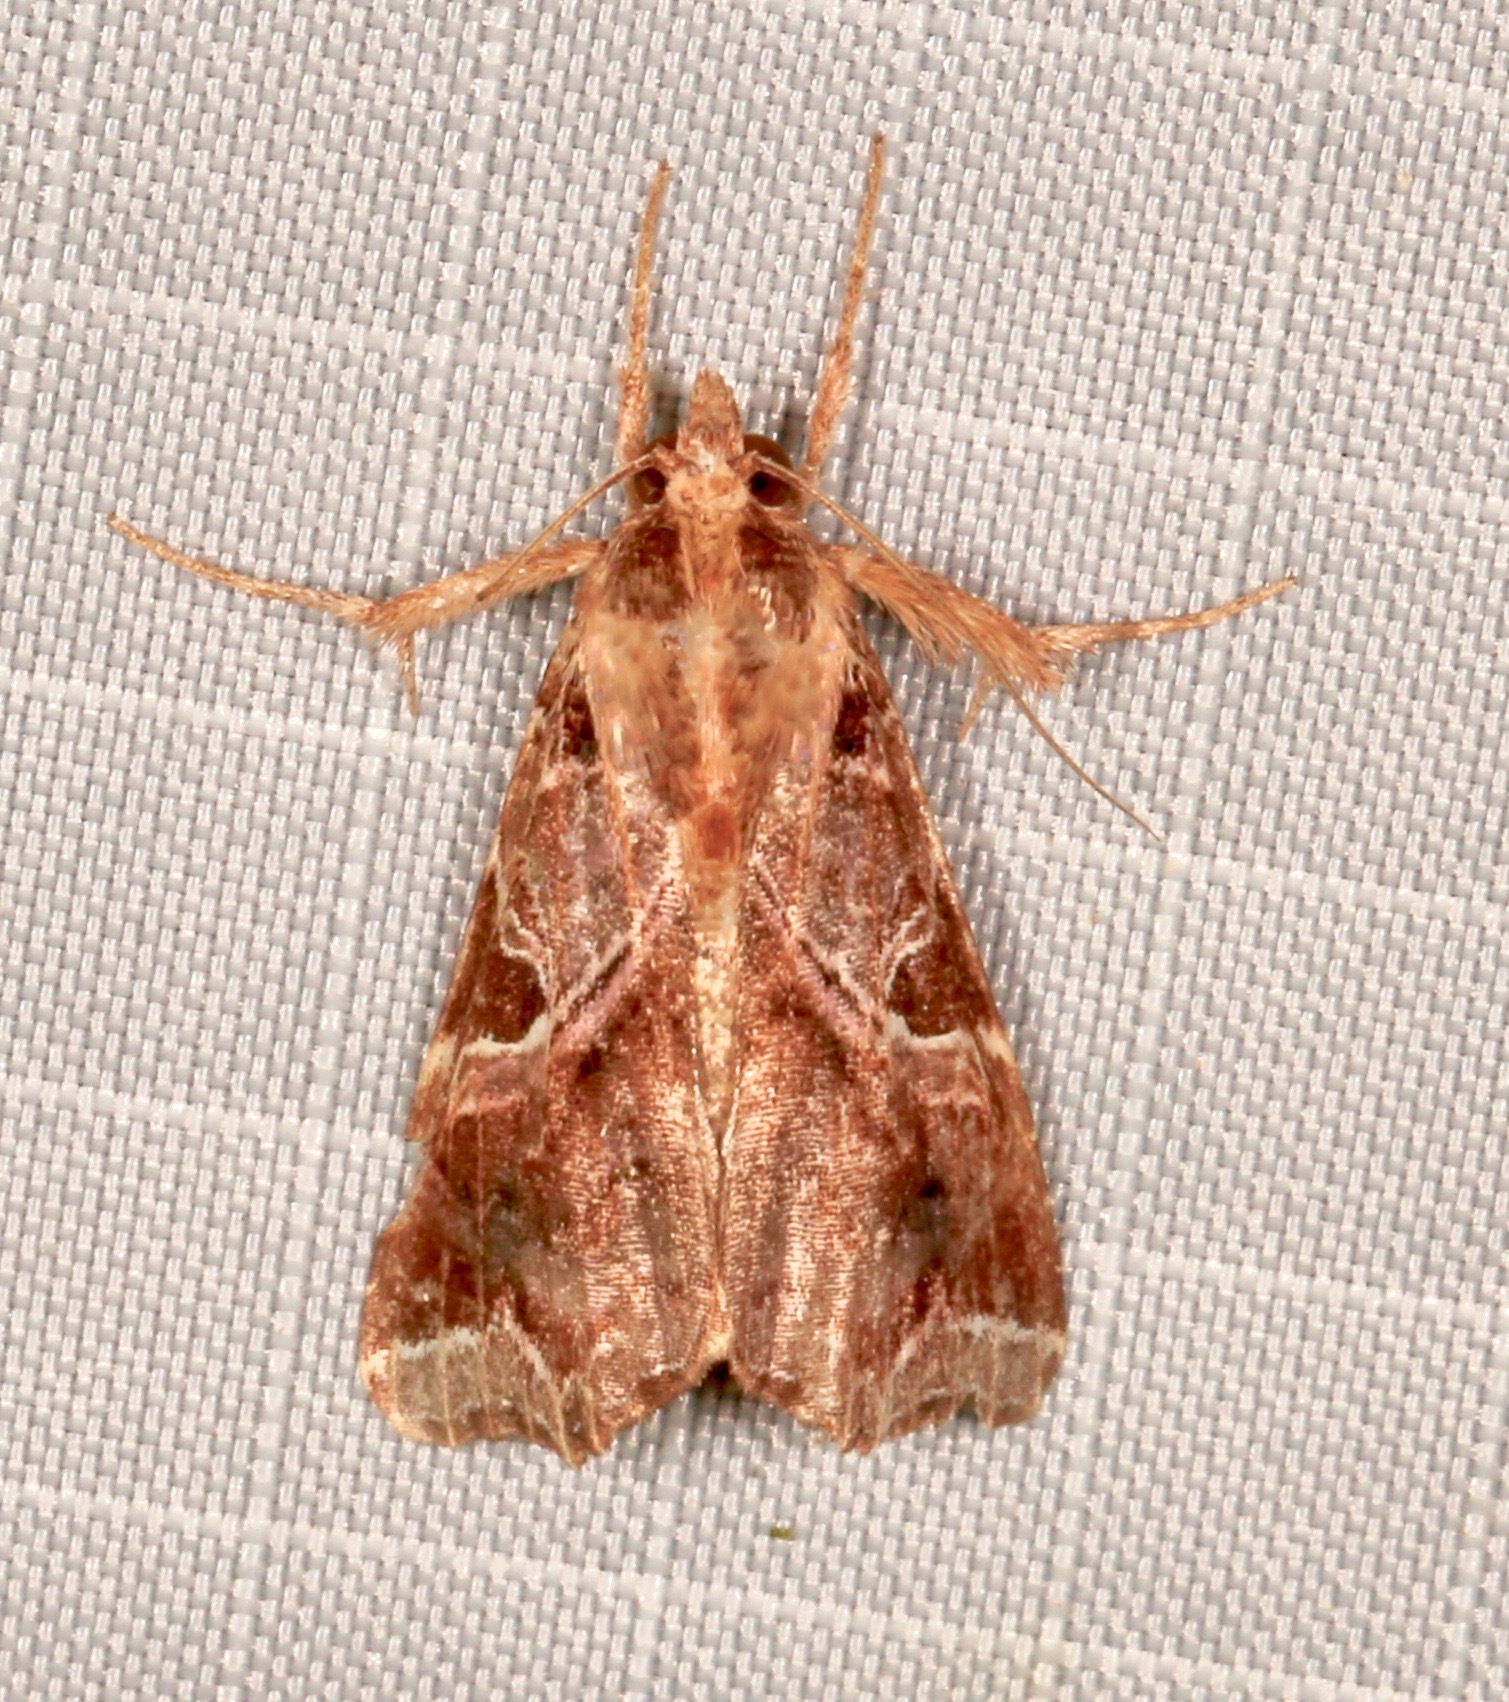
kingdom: Animalia
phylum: Arthropoda
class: Insecta
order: Lepidoptera
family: Noctuidae
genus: Callopistria
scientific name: Callopistria floridensis
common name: Florida fern moth
